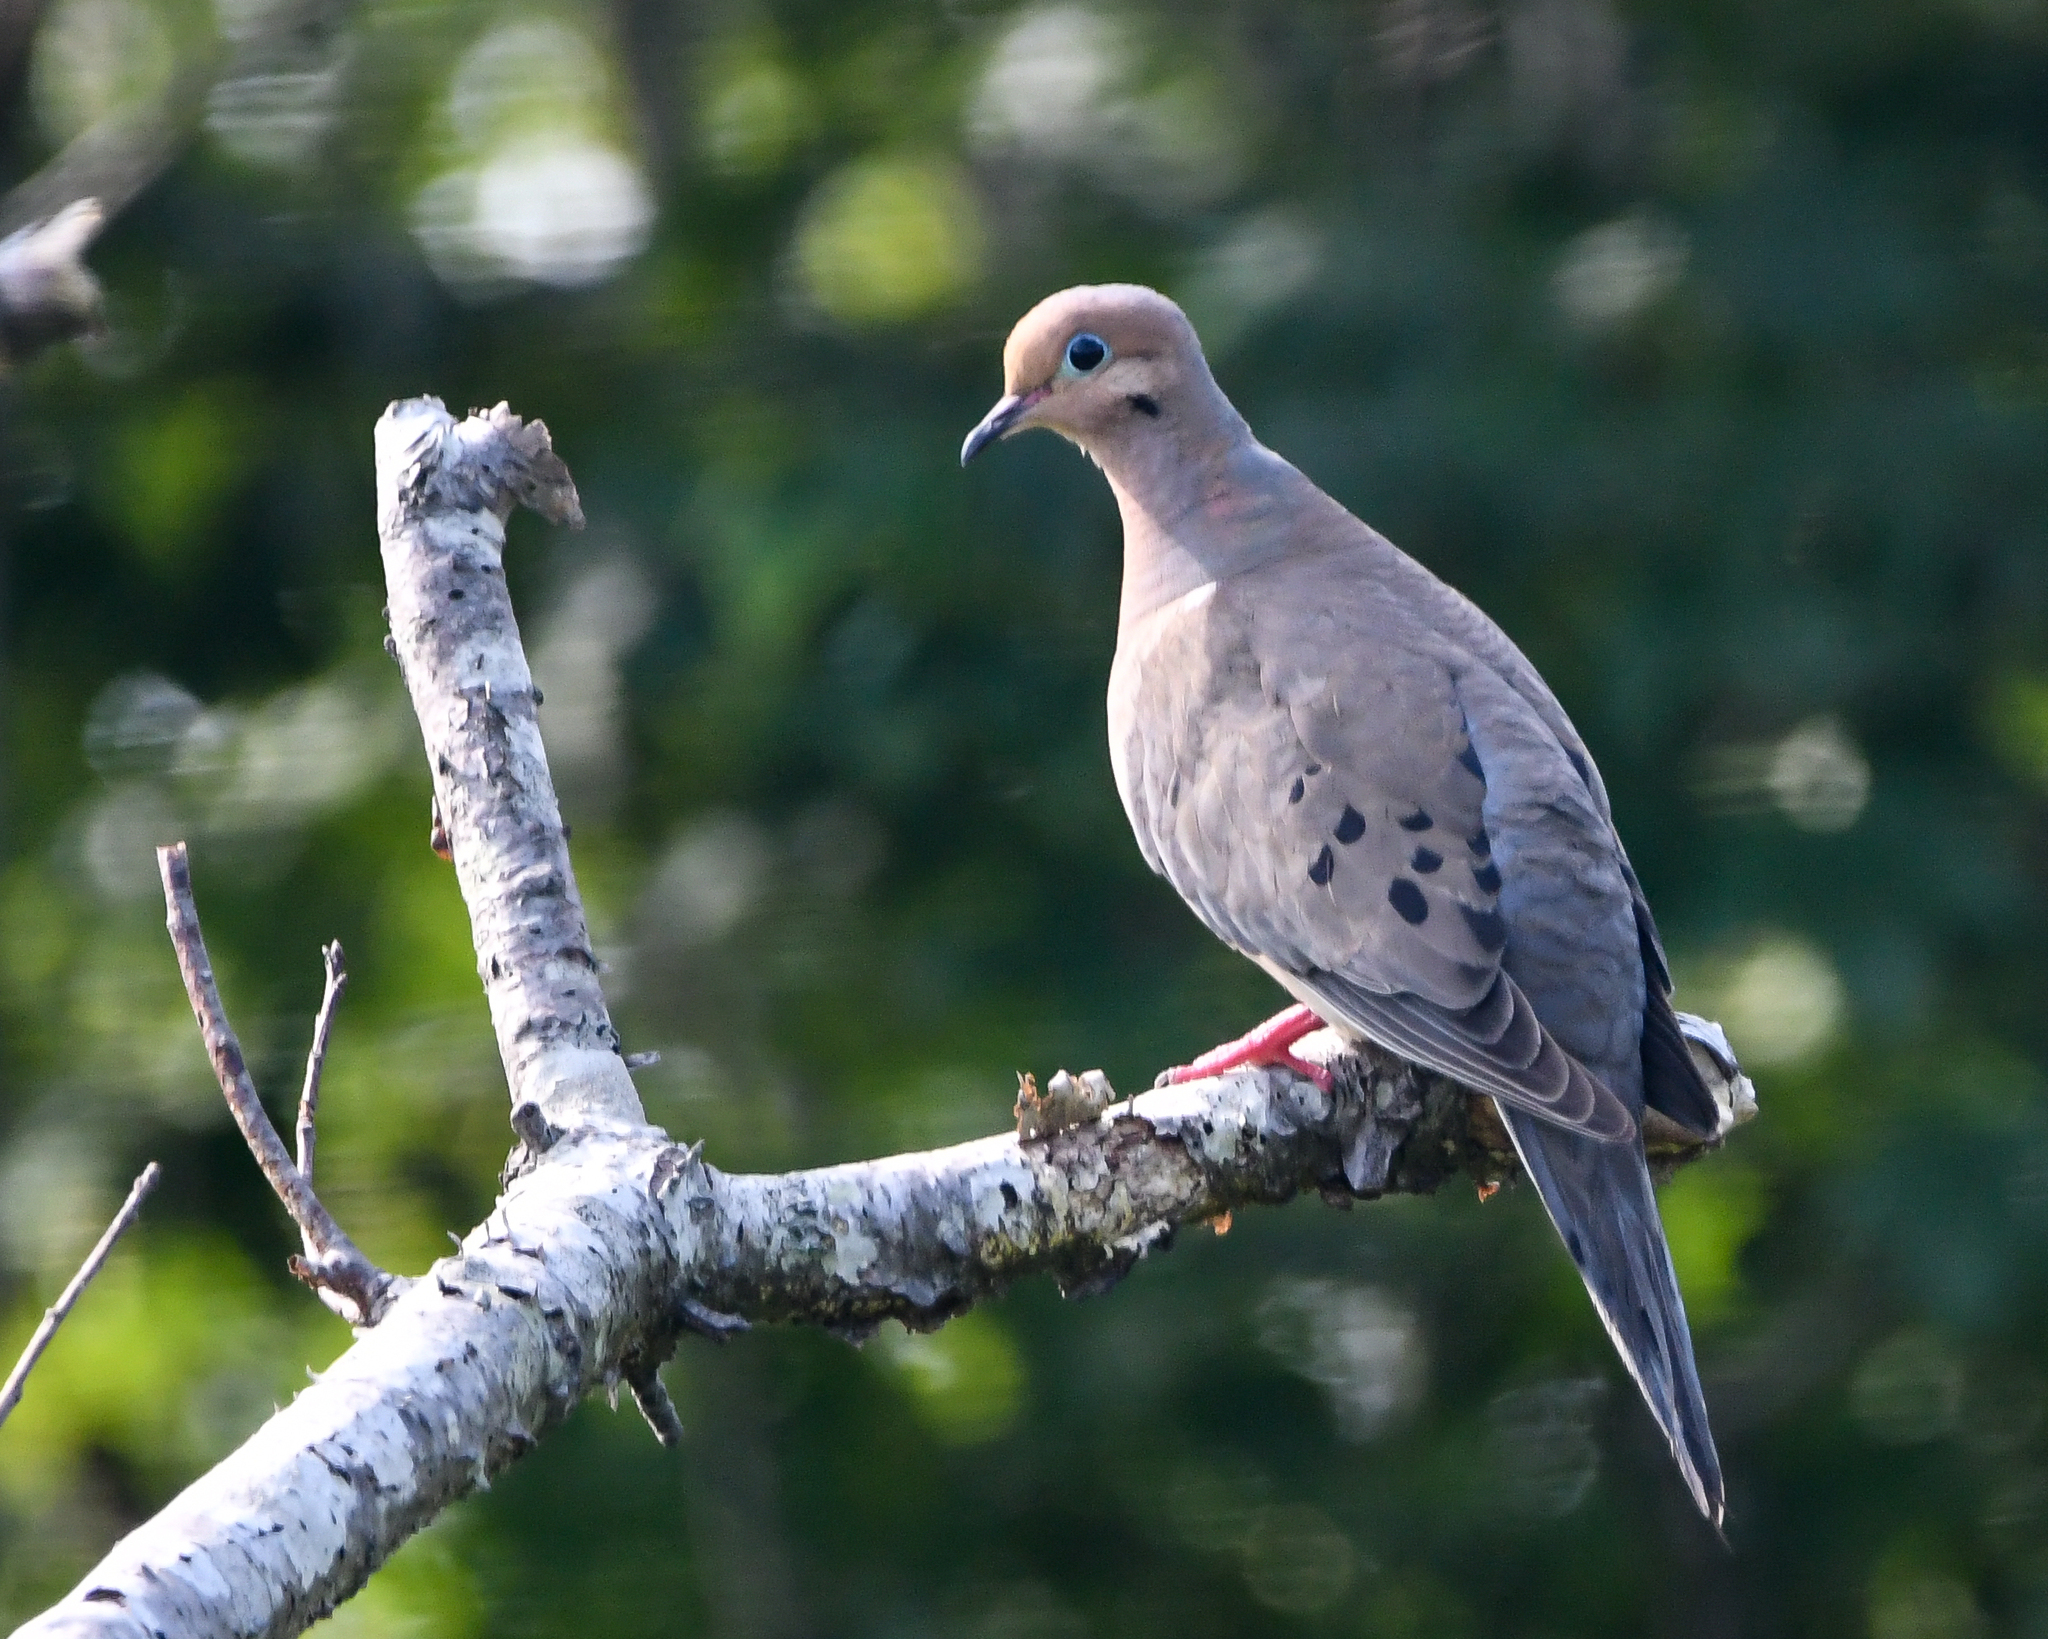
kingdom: Animalia
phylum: Chordata
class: Aves
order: Columbiformes
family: Columbidae
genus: Zenaida
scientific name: Zenaida macroura
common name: Mourning dove
